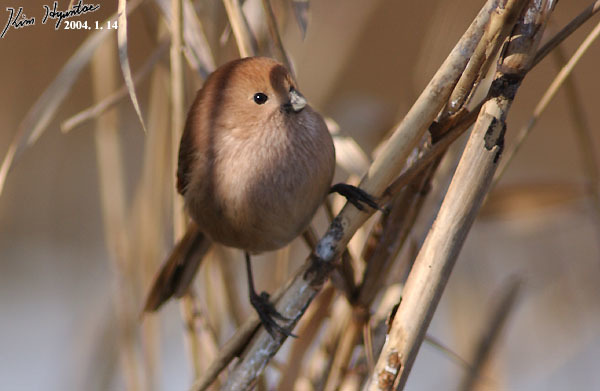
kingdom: Animalia
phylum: Chordata
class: Aves
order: Passeriformes
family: Sylviidae
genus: Sinosuthora
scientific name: Sinosuthora webbiana
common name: Vinous-throated parrotbill
